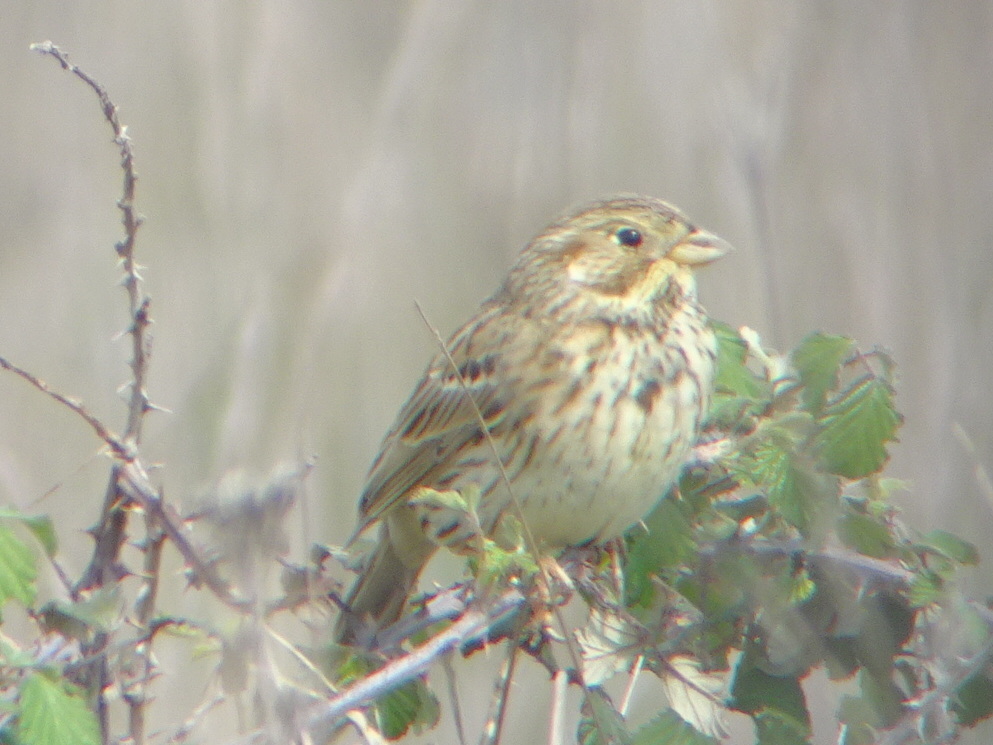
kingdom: Animalia
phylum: Chordata
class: Aves
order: Passeriformes
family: Emberizidae
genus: Emberiza
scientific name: Emberiza calandra
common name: Corn bunting
